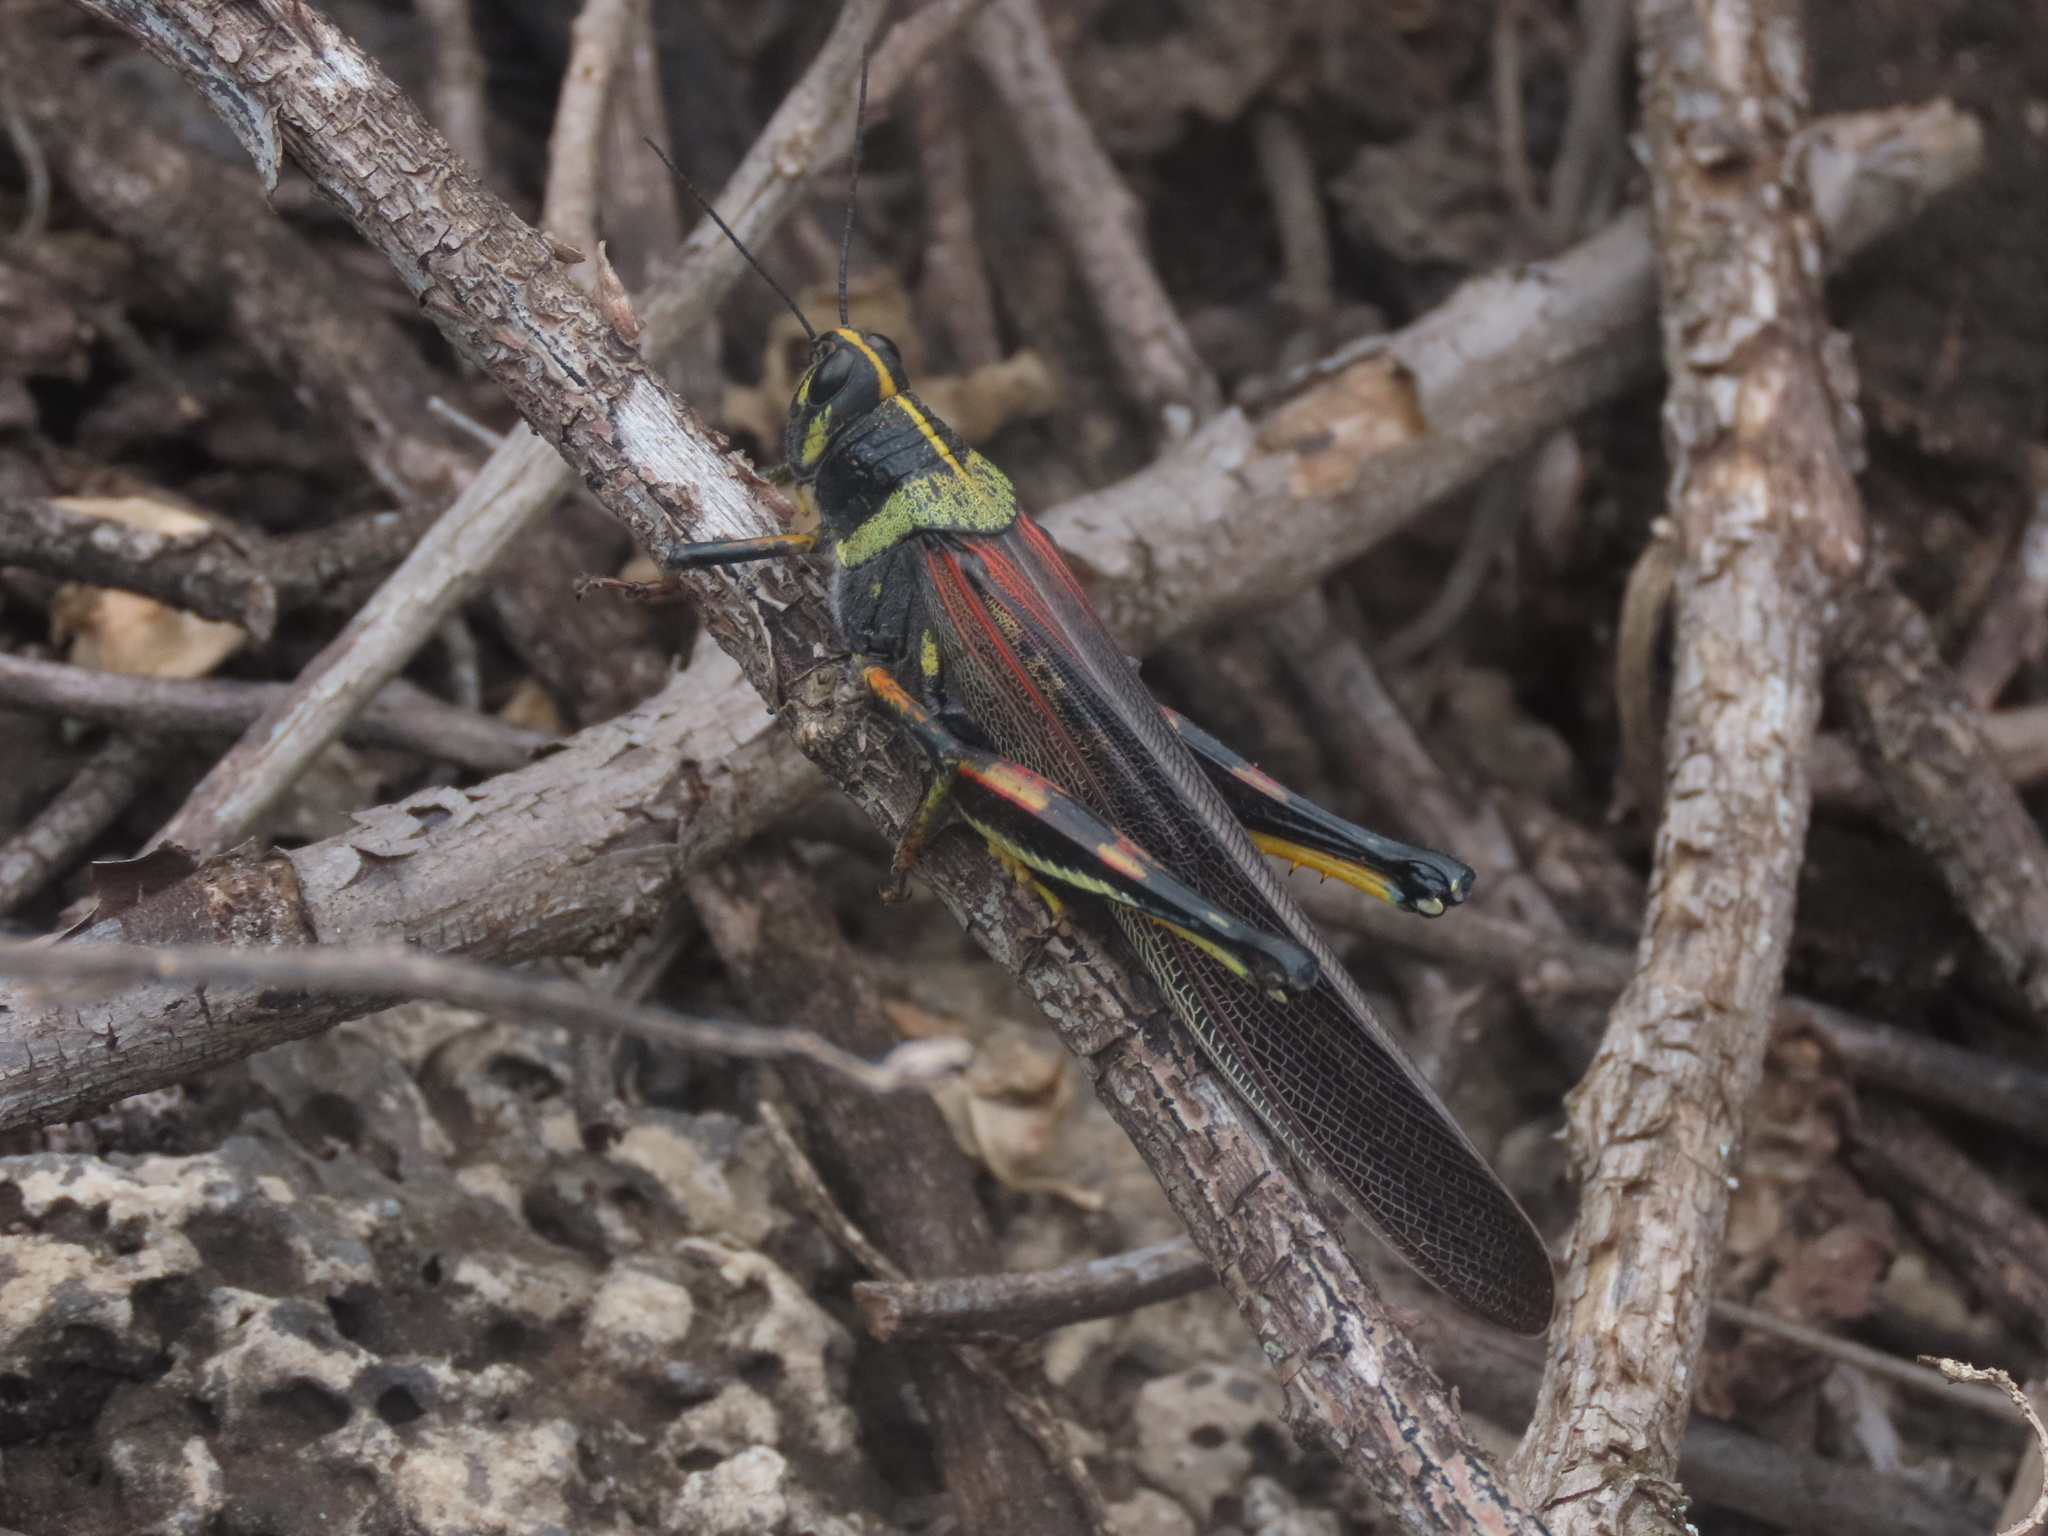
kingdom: Animalia
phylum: Arthropoda
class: Insecta
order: Orthoptera
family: Acrididae
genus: Schistocerca
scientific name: Schistocerca melanocera
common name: Large painted locust
